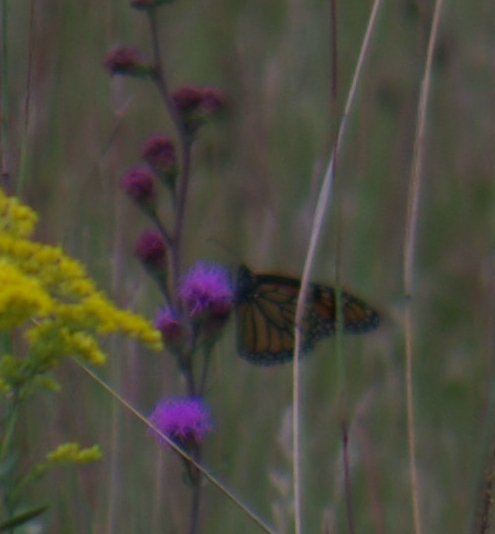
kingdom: Animalia
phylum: Arthropoda
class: Insecta
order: Lepidoptera
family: Nymphalidae
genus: Danaus
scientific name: Danaus plexippus
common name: Monarch
